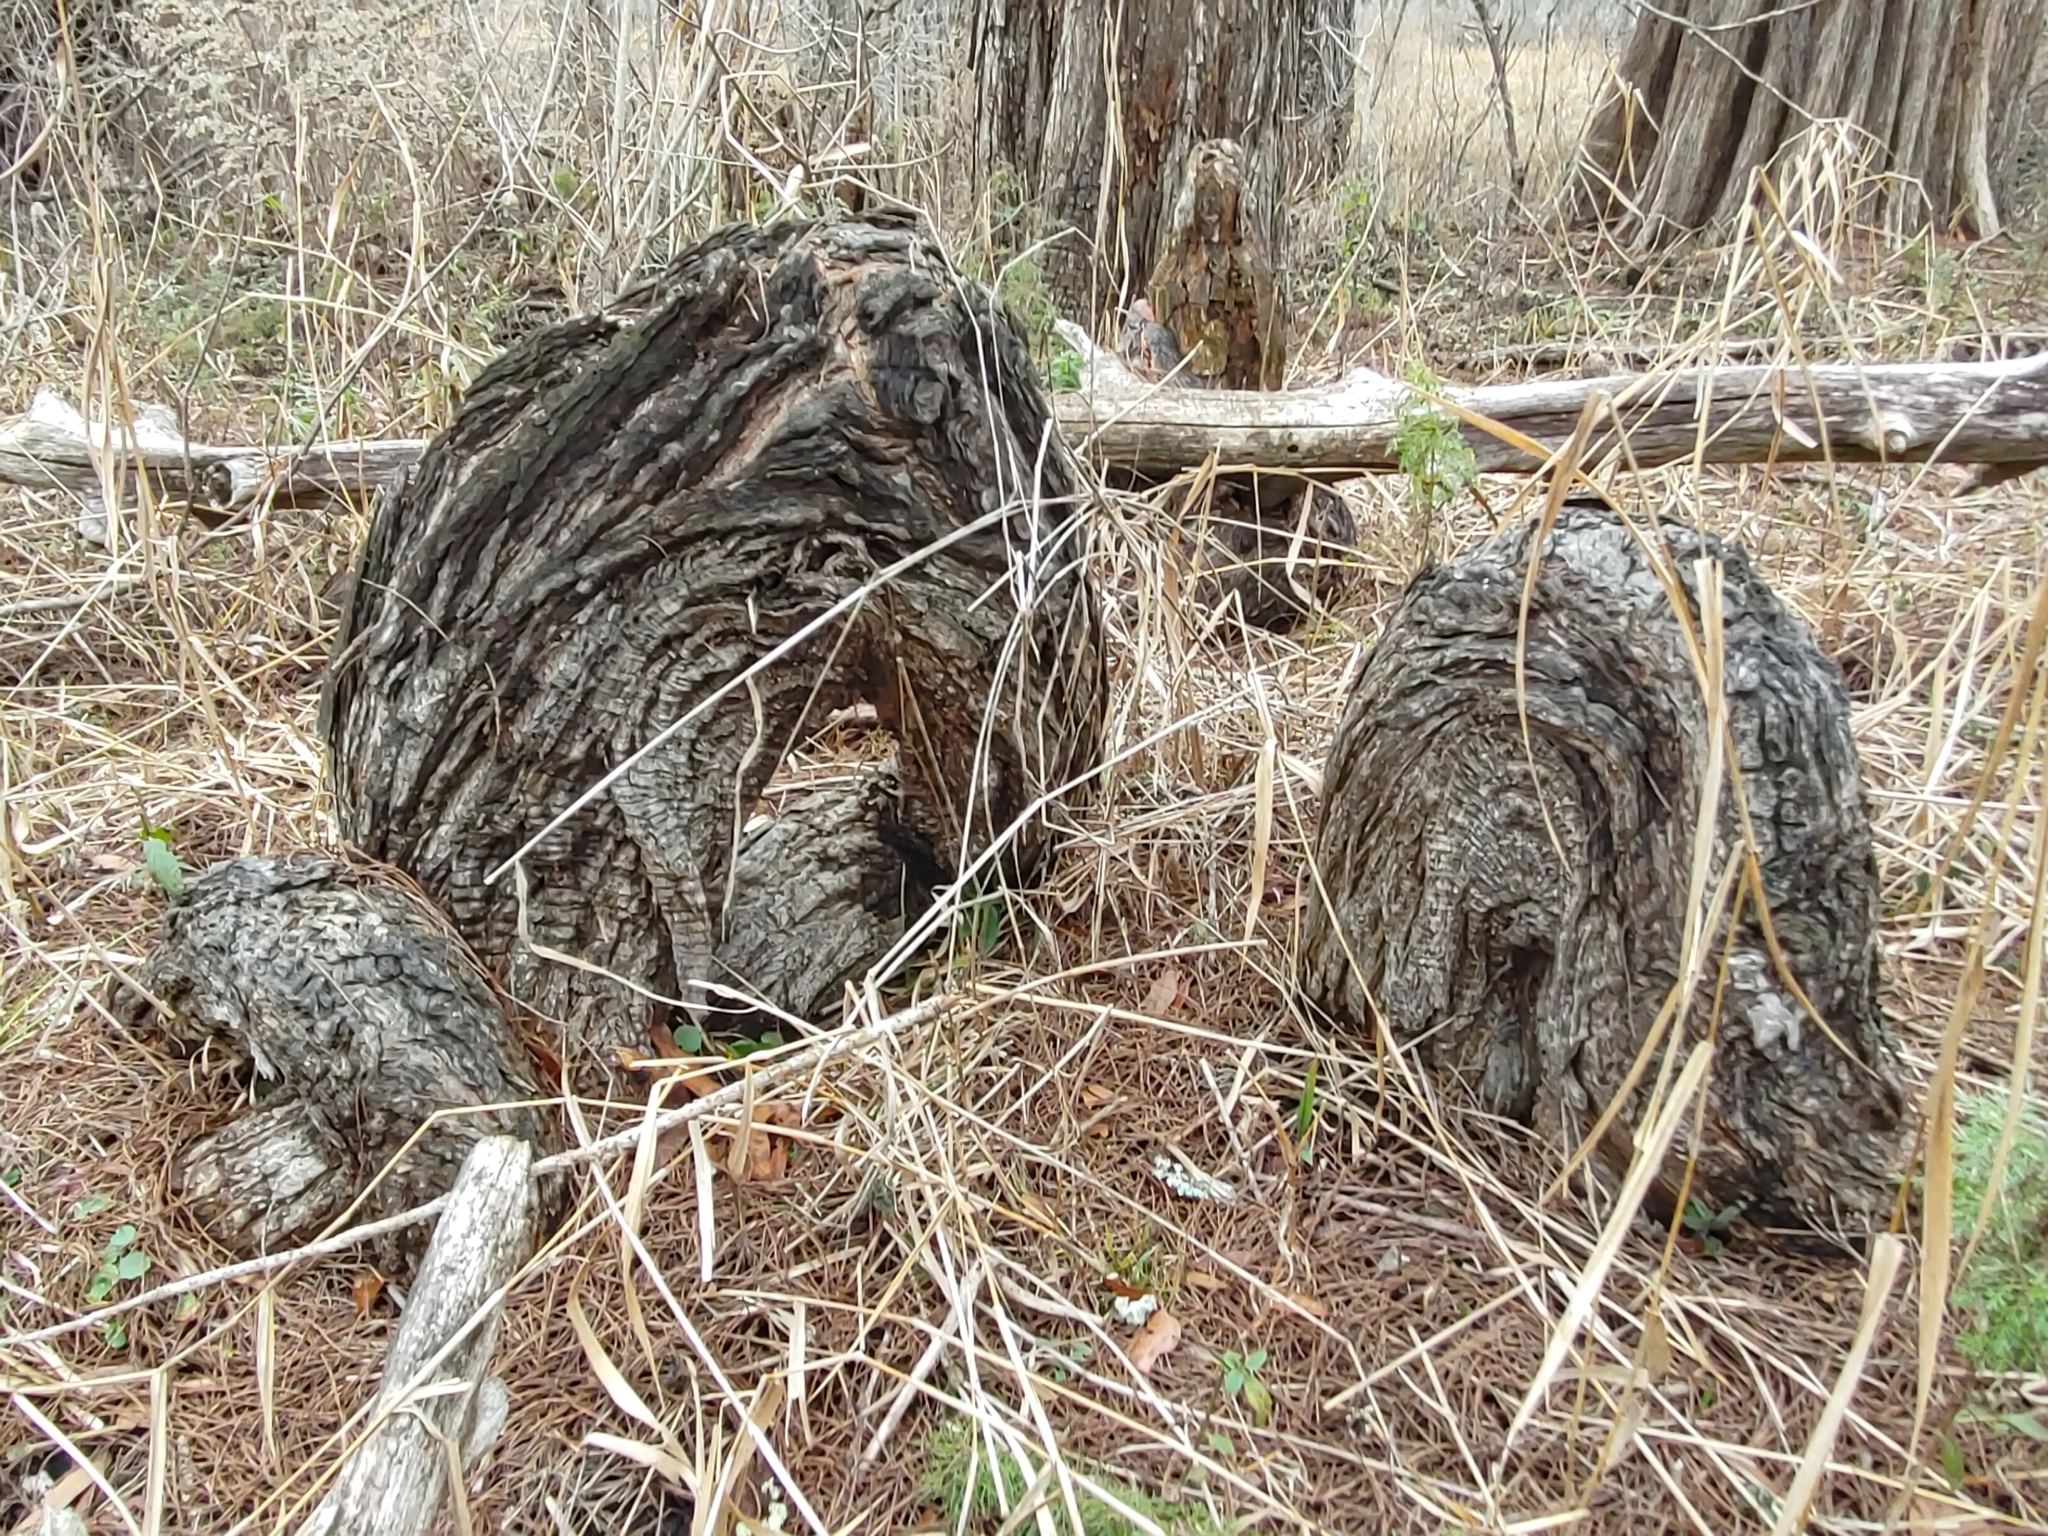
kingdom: Plantae
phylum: Tracheophyta
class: Pinopsida
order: Pinales
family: Cupressaceae
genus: Taxodium
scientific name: Taxodium distichum
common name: Bald cypress
